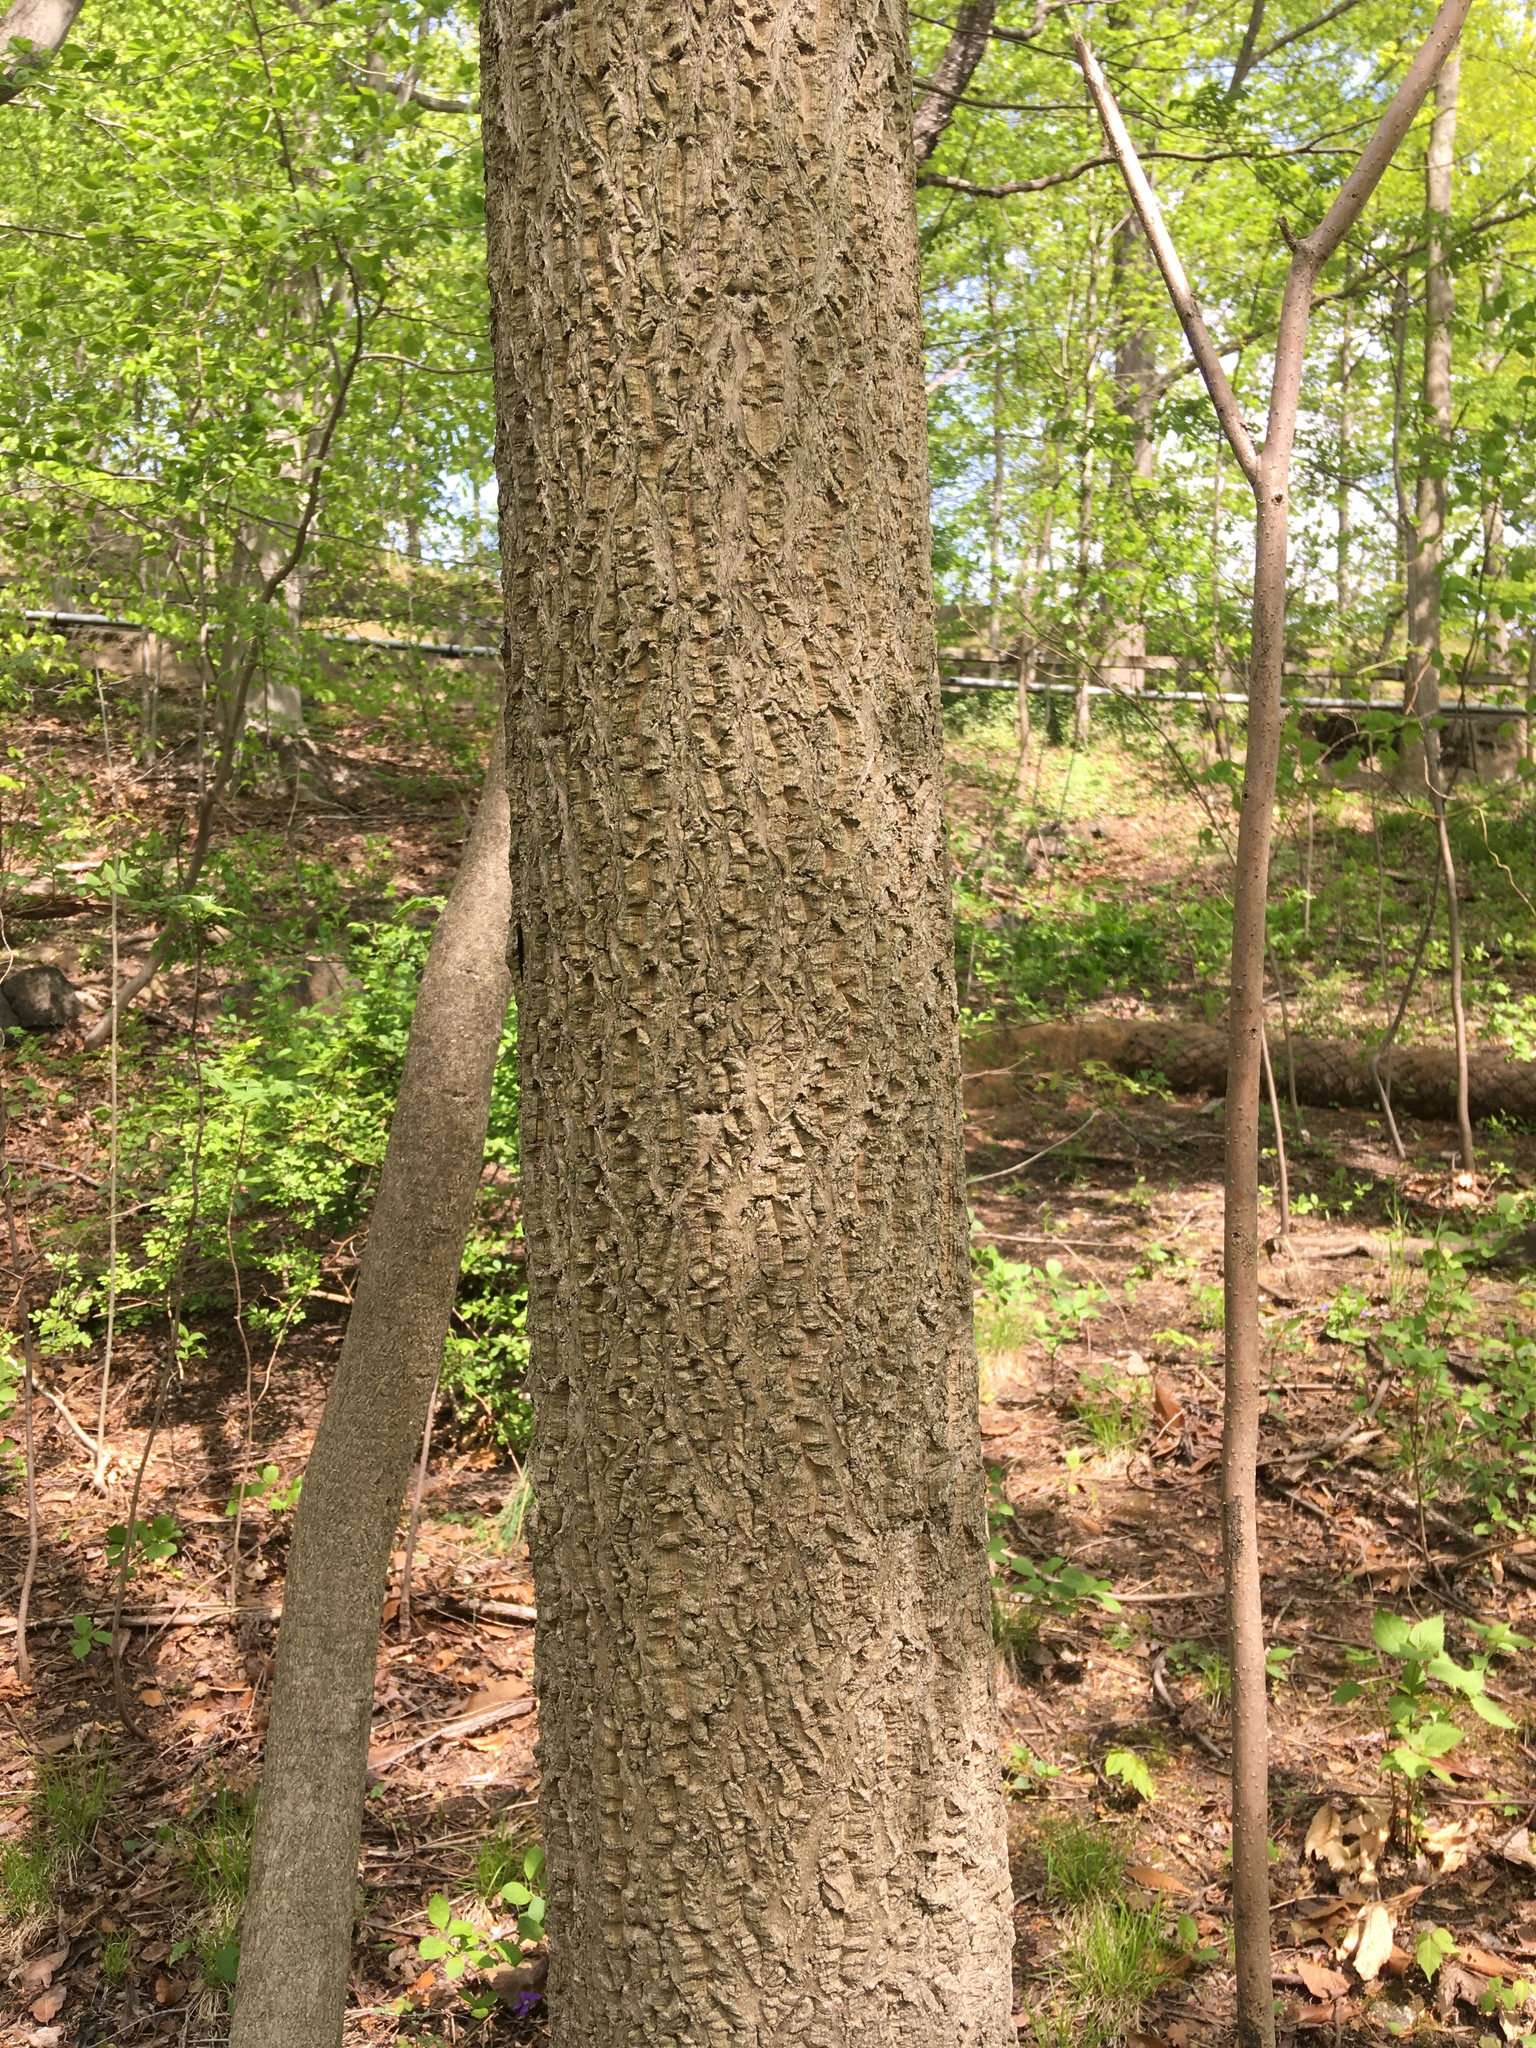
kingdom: Plantae
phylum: Tracheophyta
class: Magnoliopsida
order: Sapindales
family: Rutaceae
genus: Phellodendron
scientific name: Phellodendron amurense
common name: Amur corktree
